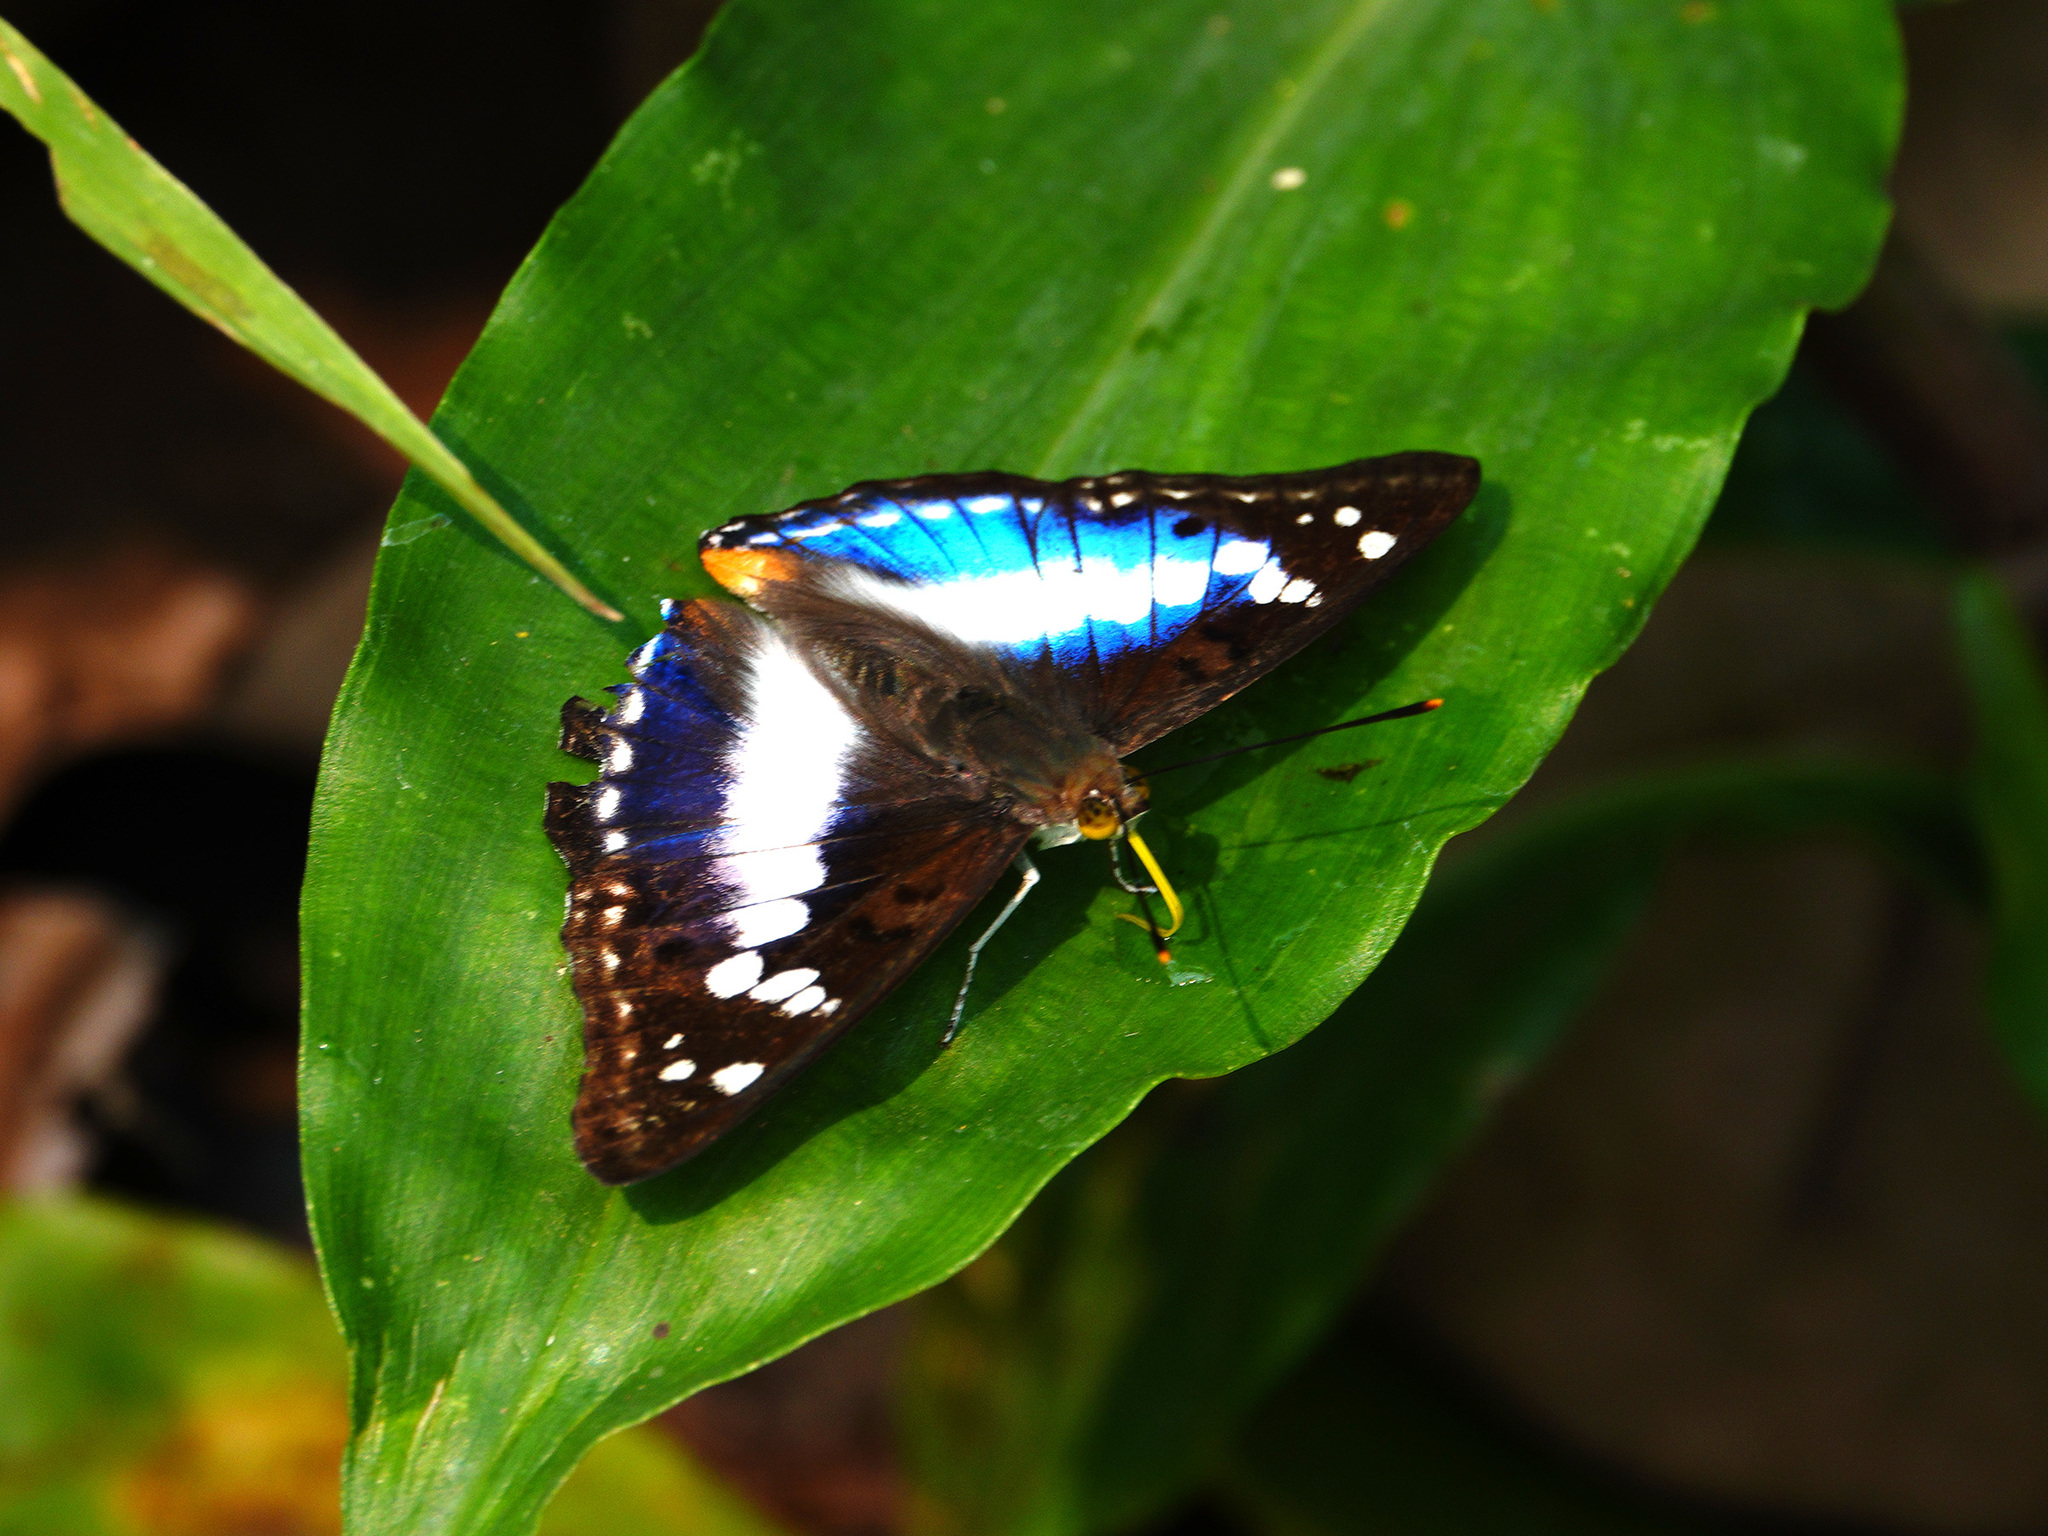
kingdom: Animalia
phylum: Arthropoda
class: Insecta
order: Lepidoptera
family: Nymphalidae
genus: Apatura
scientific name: Apatura Mimathyma ambica
